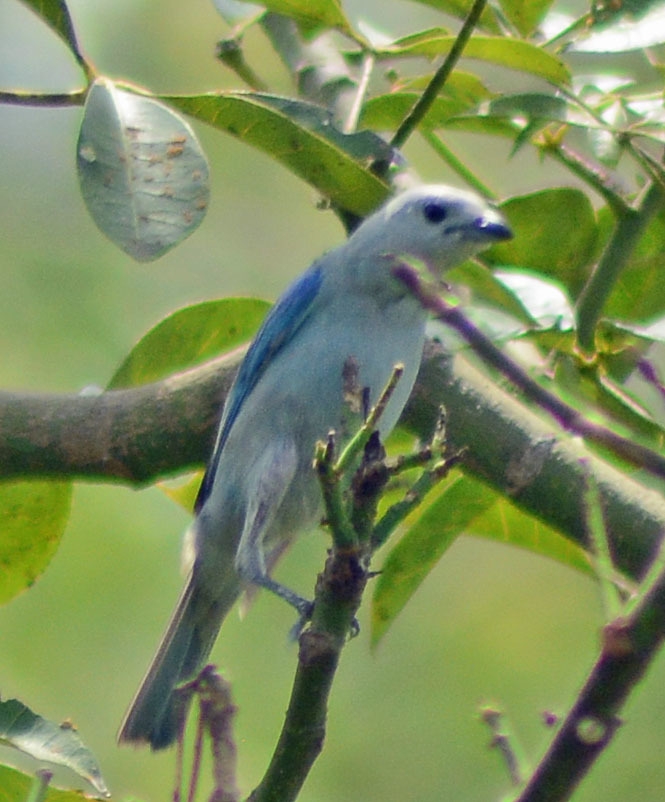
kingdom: Animalia
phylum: Chordata
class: Aves
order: Passeriformes
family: Thraupidae
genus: Thraupis
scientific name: Thraupis episcopus
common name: Blue-grey tanager
